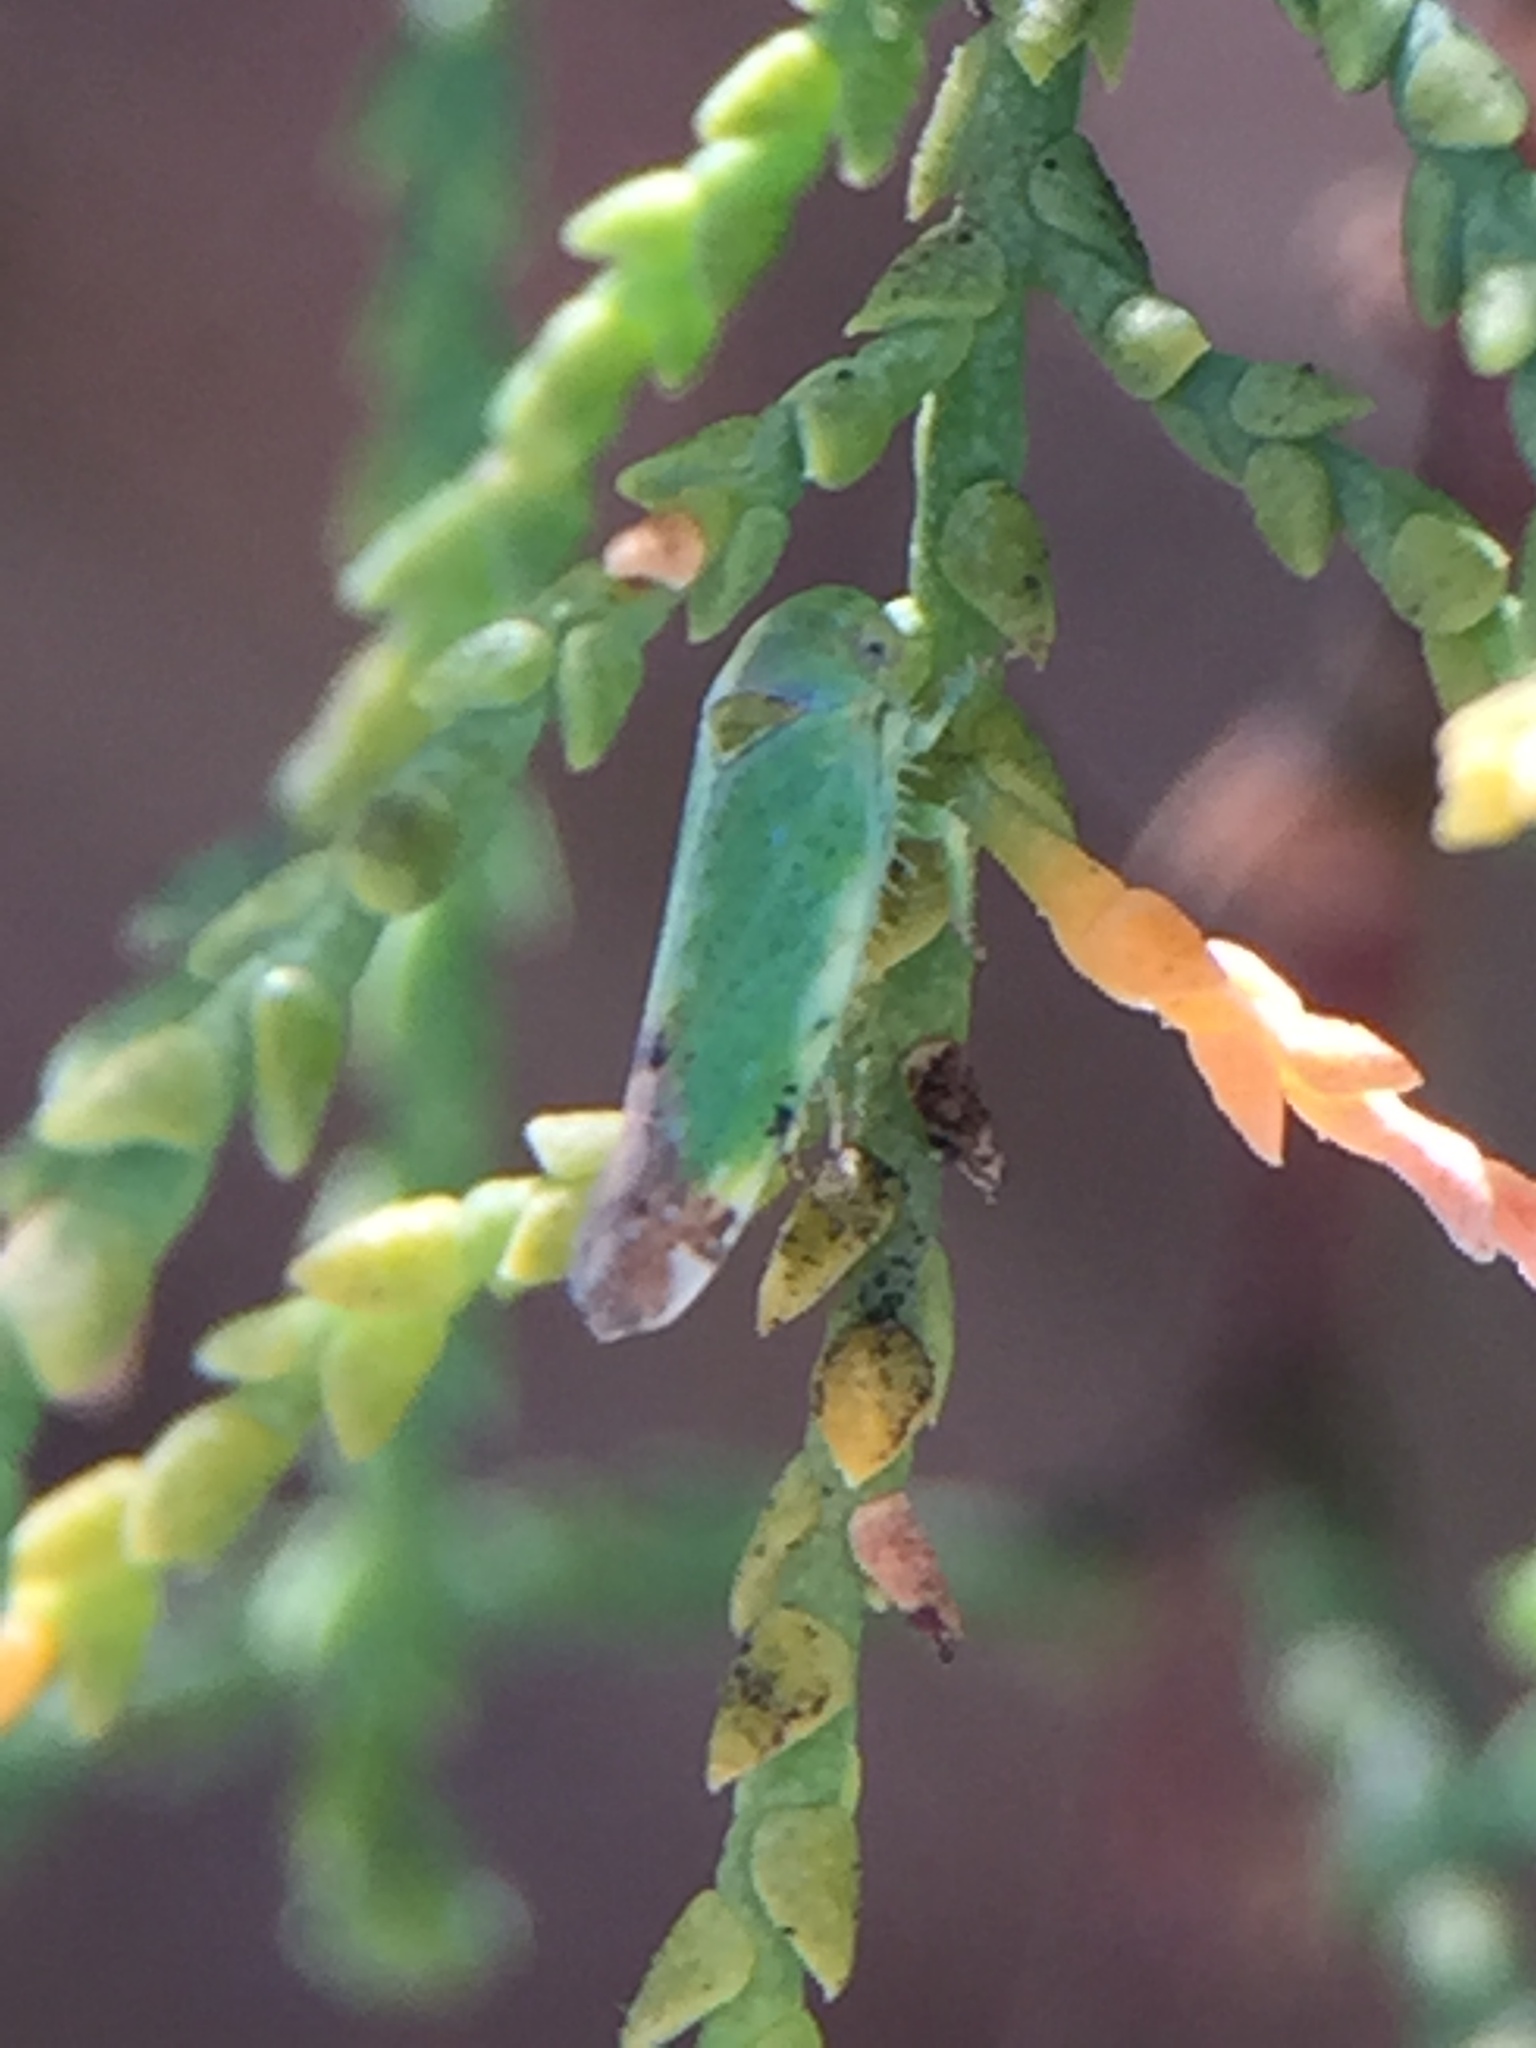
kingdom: Animalia
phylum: Arthropoda
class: Insecta
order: Hemiptera
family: Cicadellidae
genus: Opsius
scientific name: Opsius stactogalus
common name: Leafhopper
